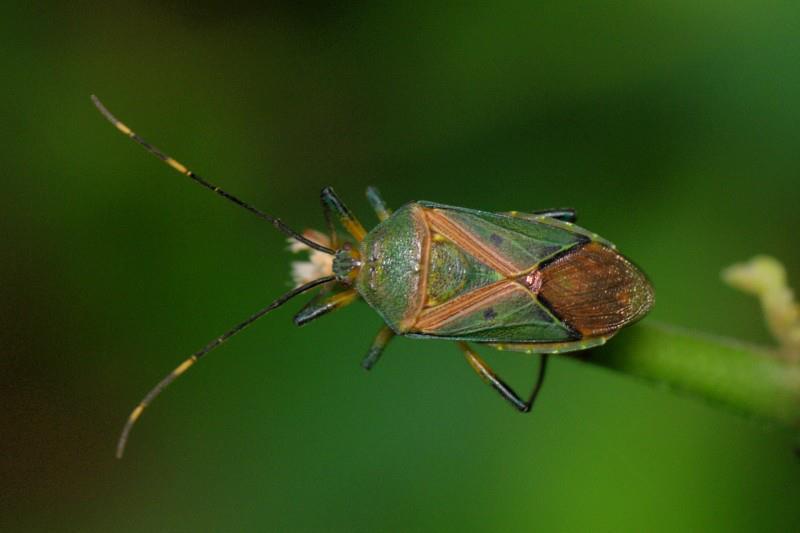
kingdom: Animalia
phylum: Arthropoda
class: Insecta
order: Hemiptera
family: Urostylididae
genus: Urostylis
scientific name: Urostylis punctigera
